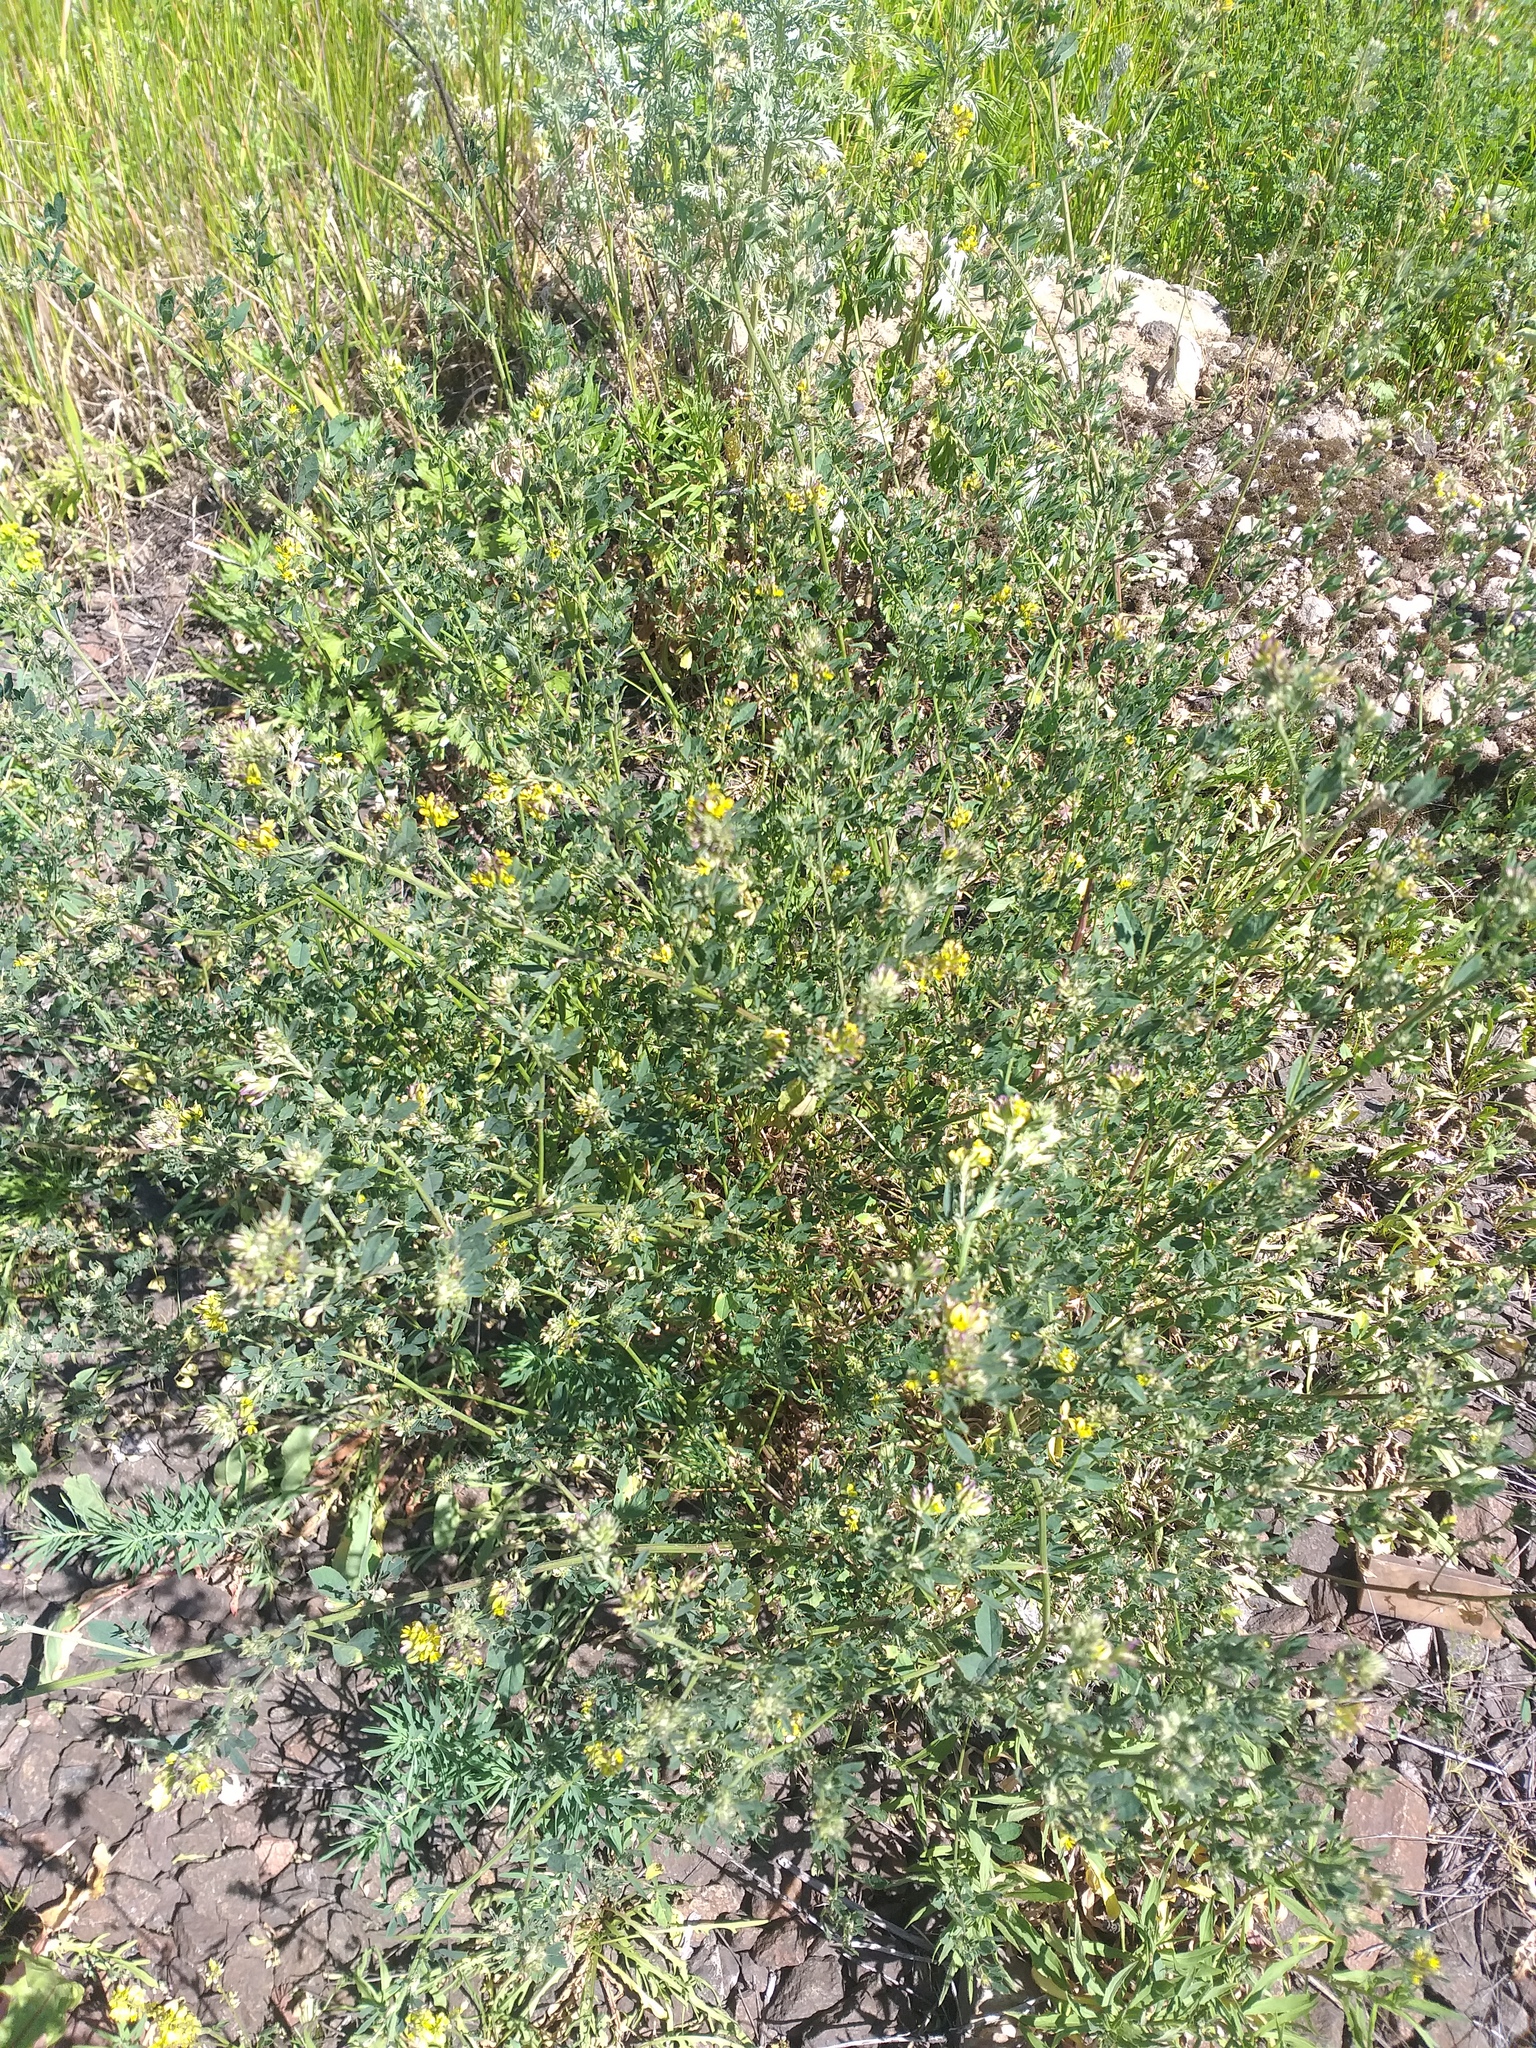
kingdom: Plantae
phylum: Tracheophyta
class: Magnoliopsida
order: Fabales
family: Fabaceae
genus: Medicago
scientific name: Medicago varia
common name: Sand lucerne
